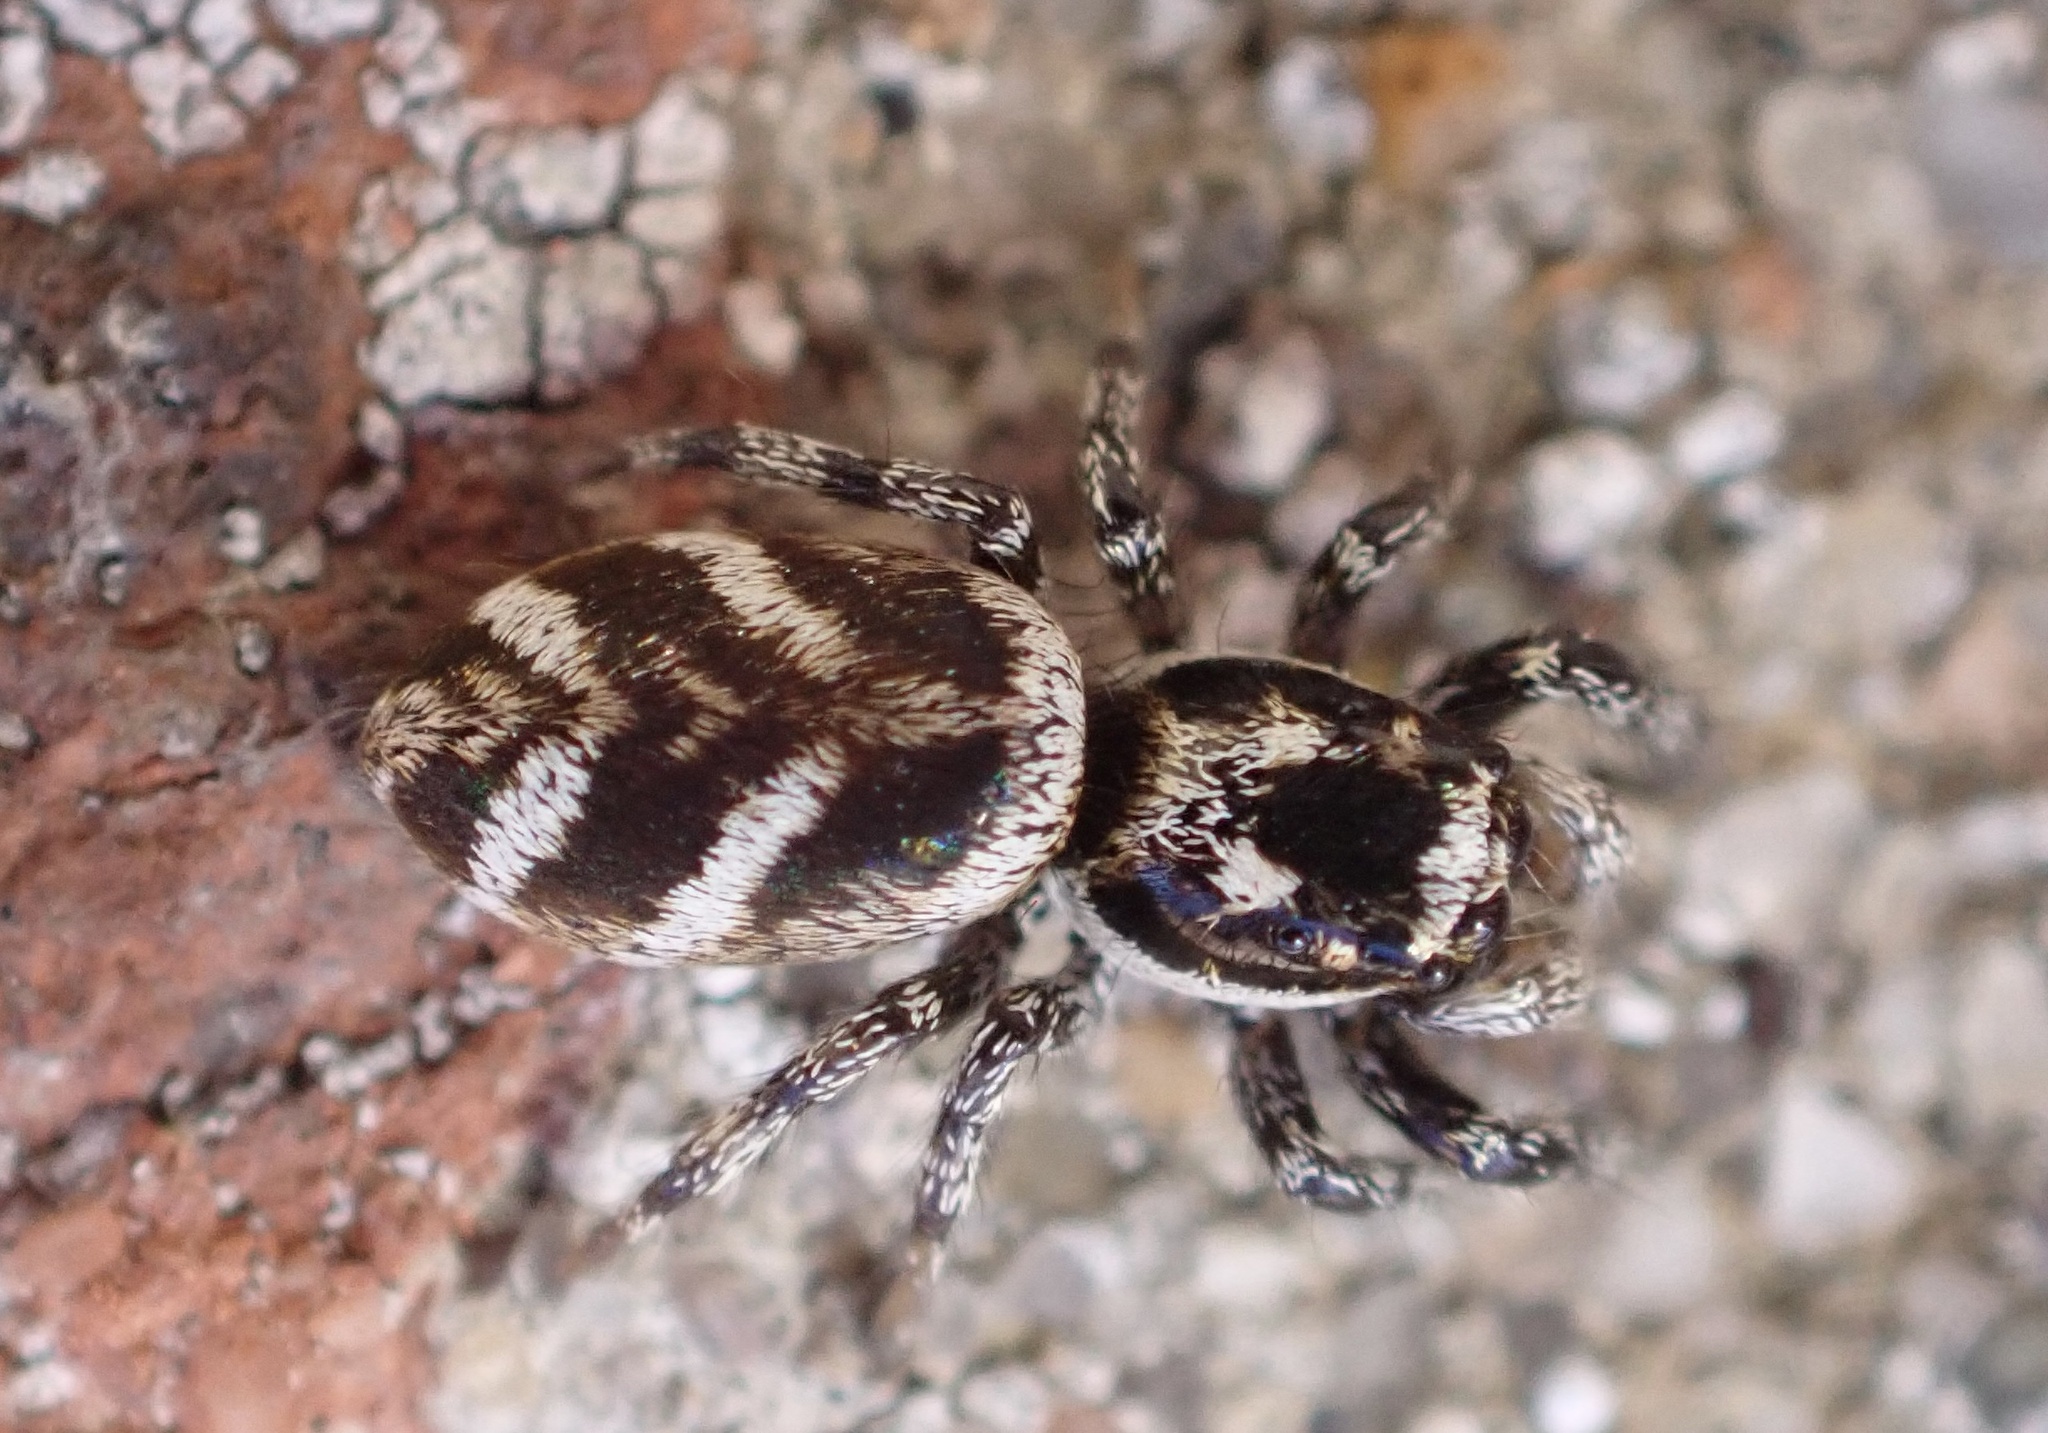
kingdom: Animalia
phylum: Arthropoda
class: Arachnida
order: Araneae
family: Salticidae
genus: Salticus
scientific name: Salticus scenicus
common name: Zebra jumper
